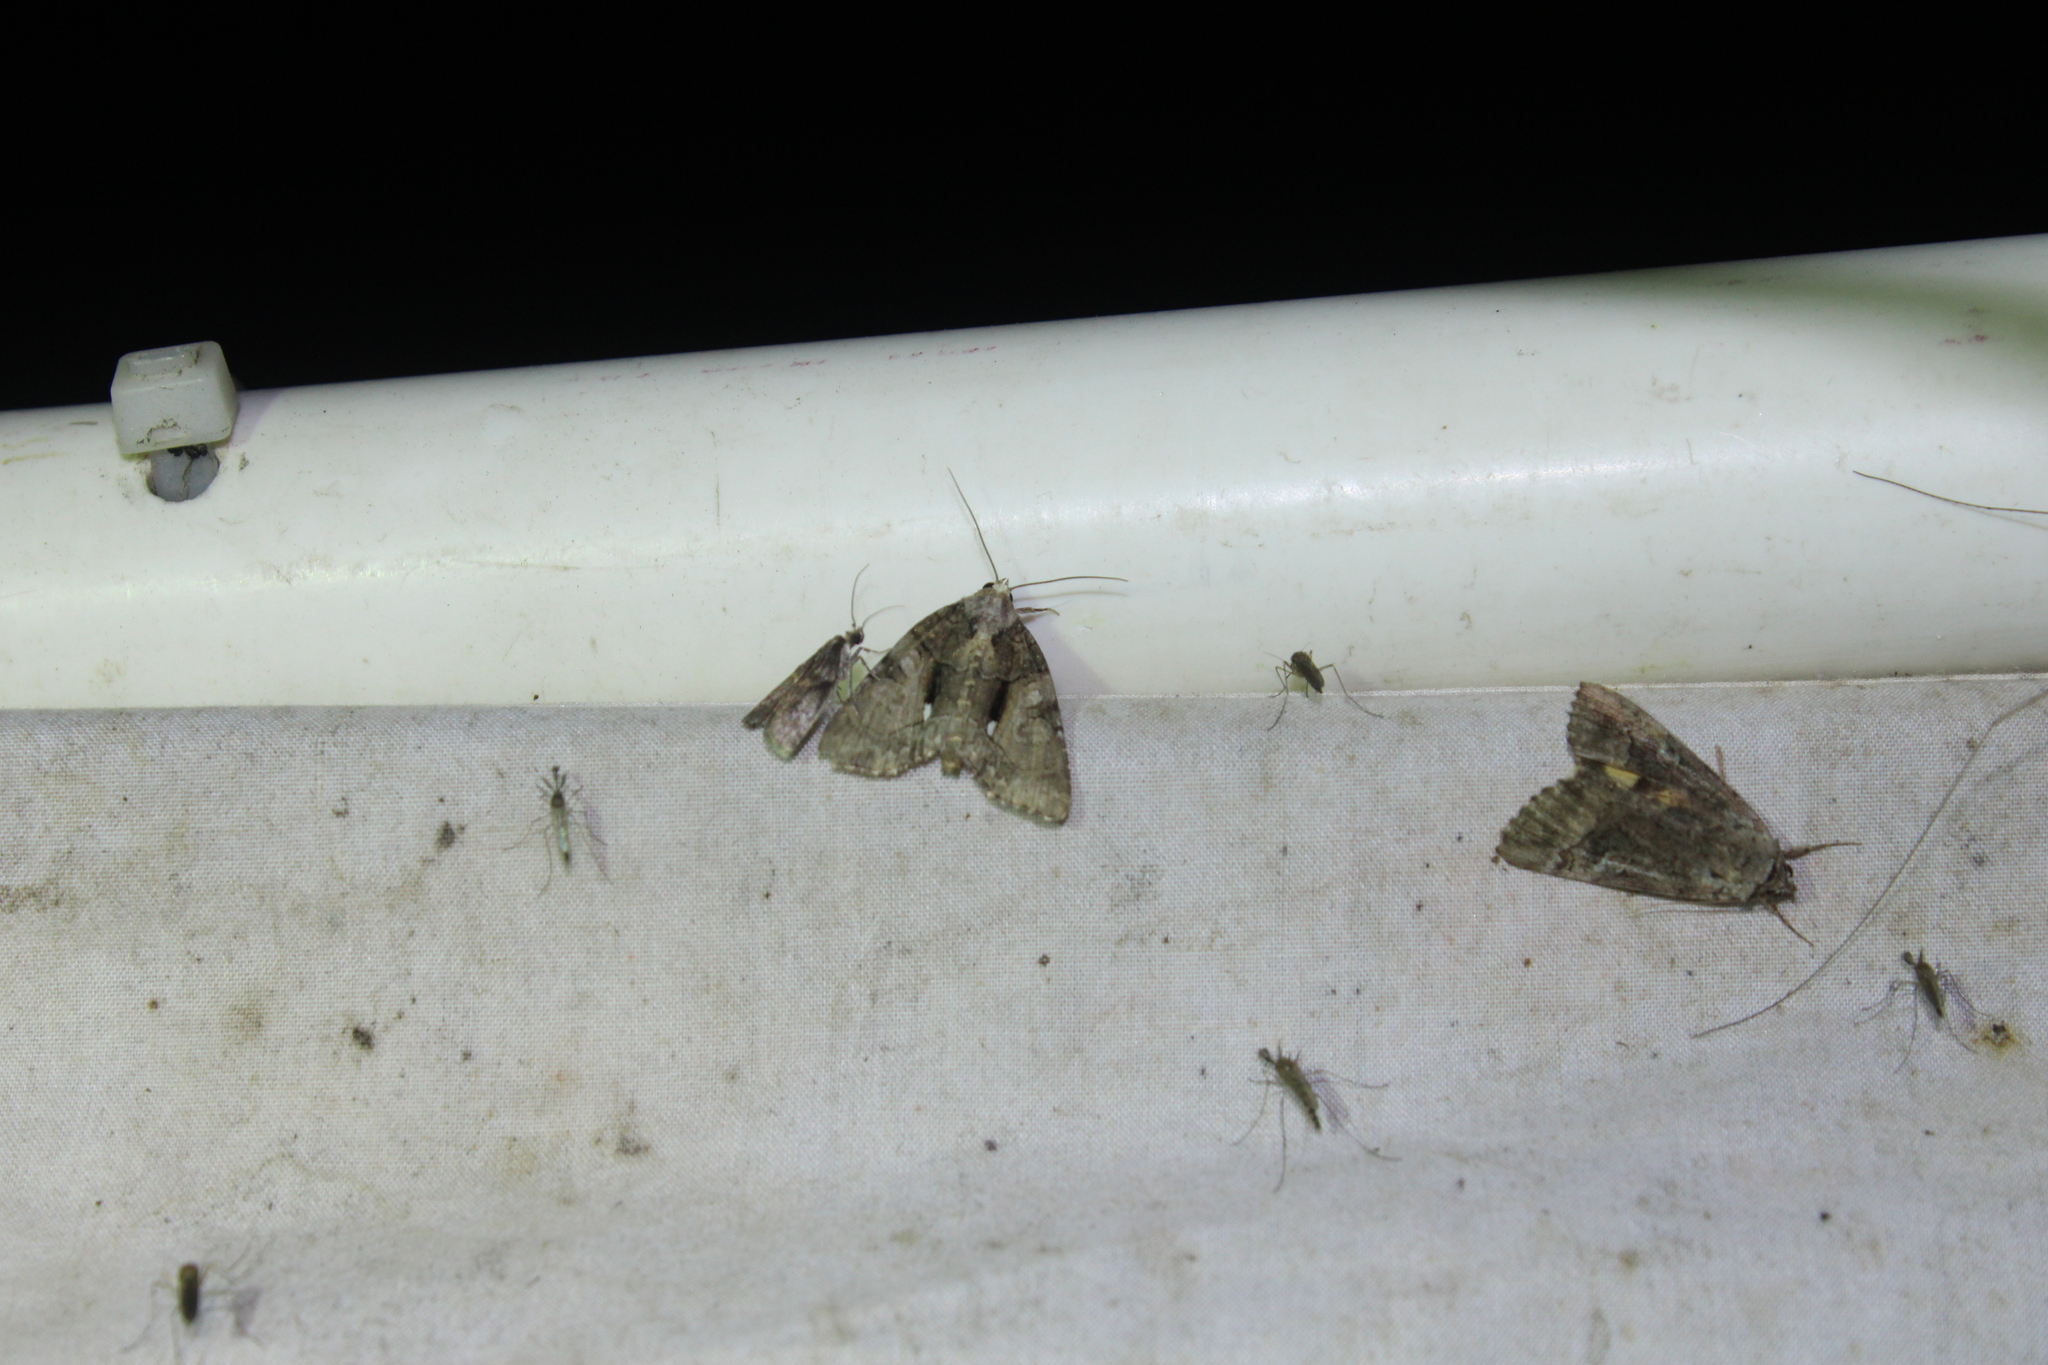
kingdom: Animalia
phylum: Arthropoda
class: Insecta
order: Lepidoptera
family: Noctuidae
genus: Chytonix
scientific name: Chytonix palliatricula
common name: Cloaked marvel
